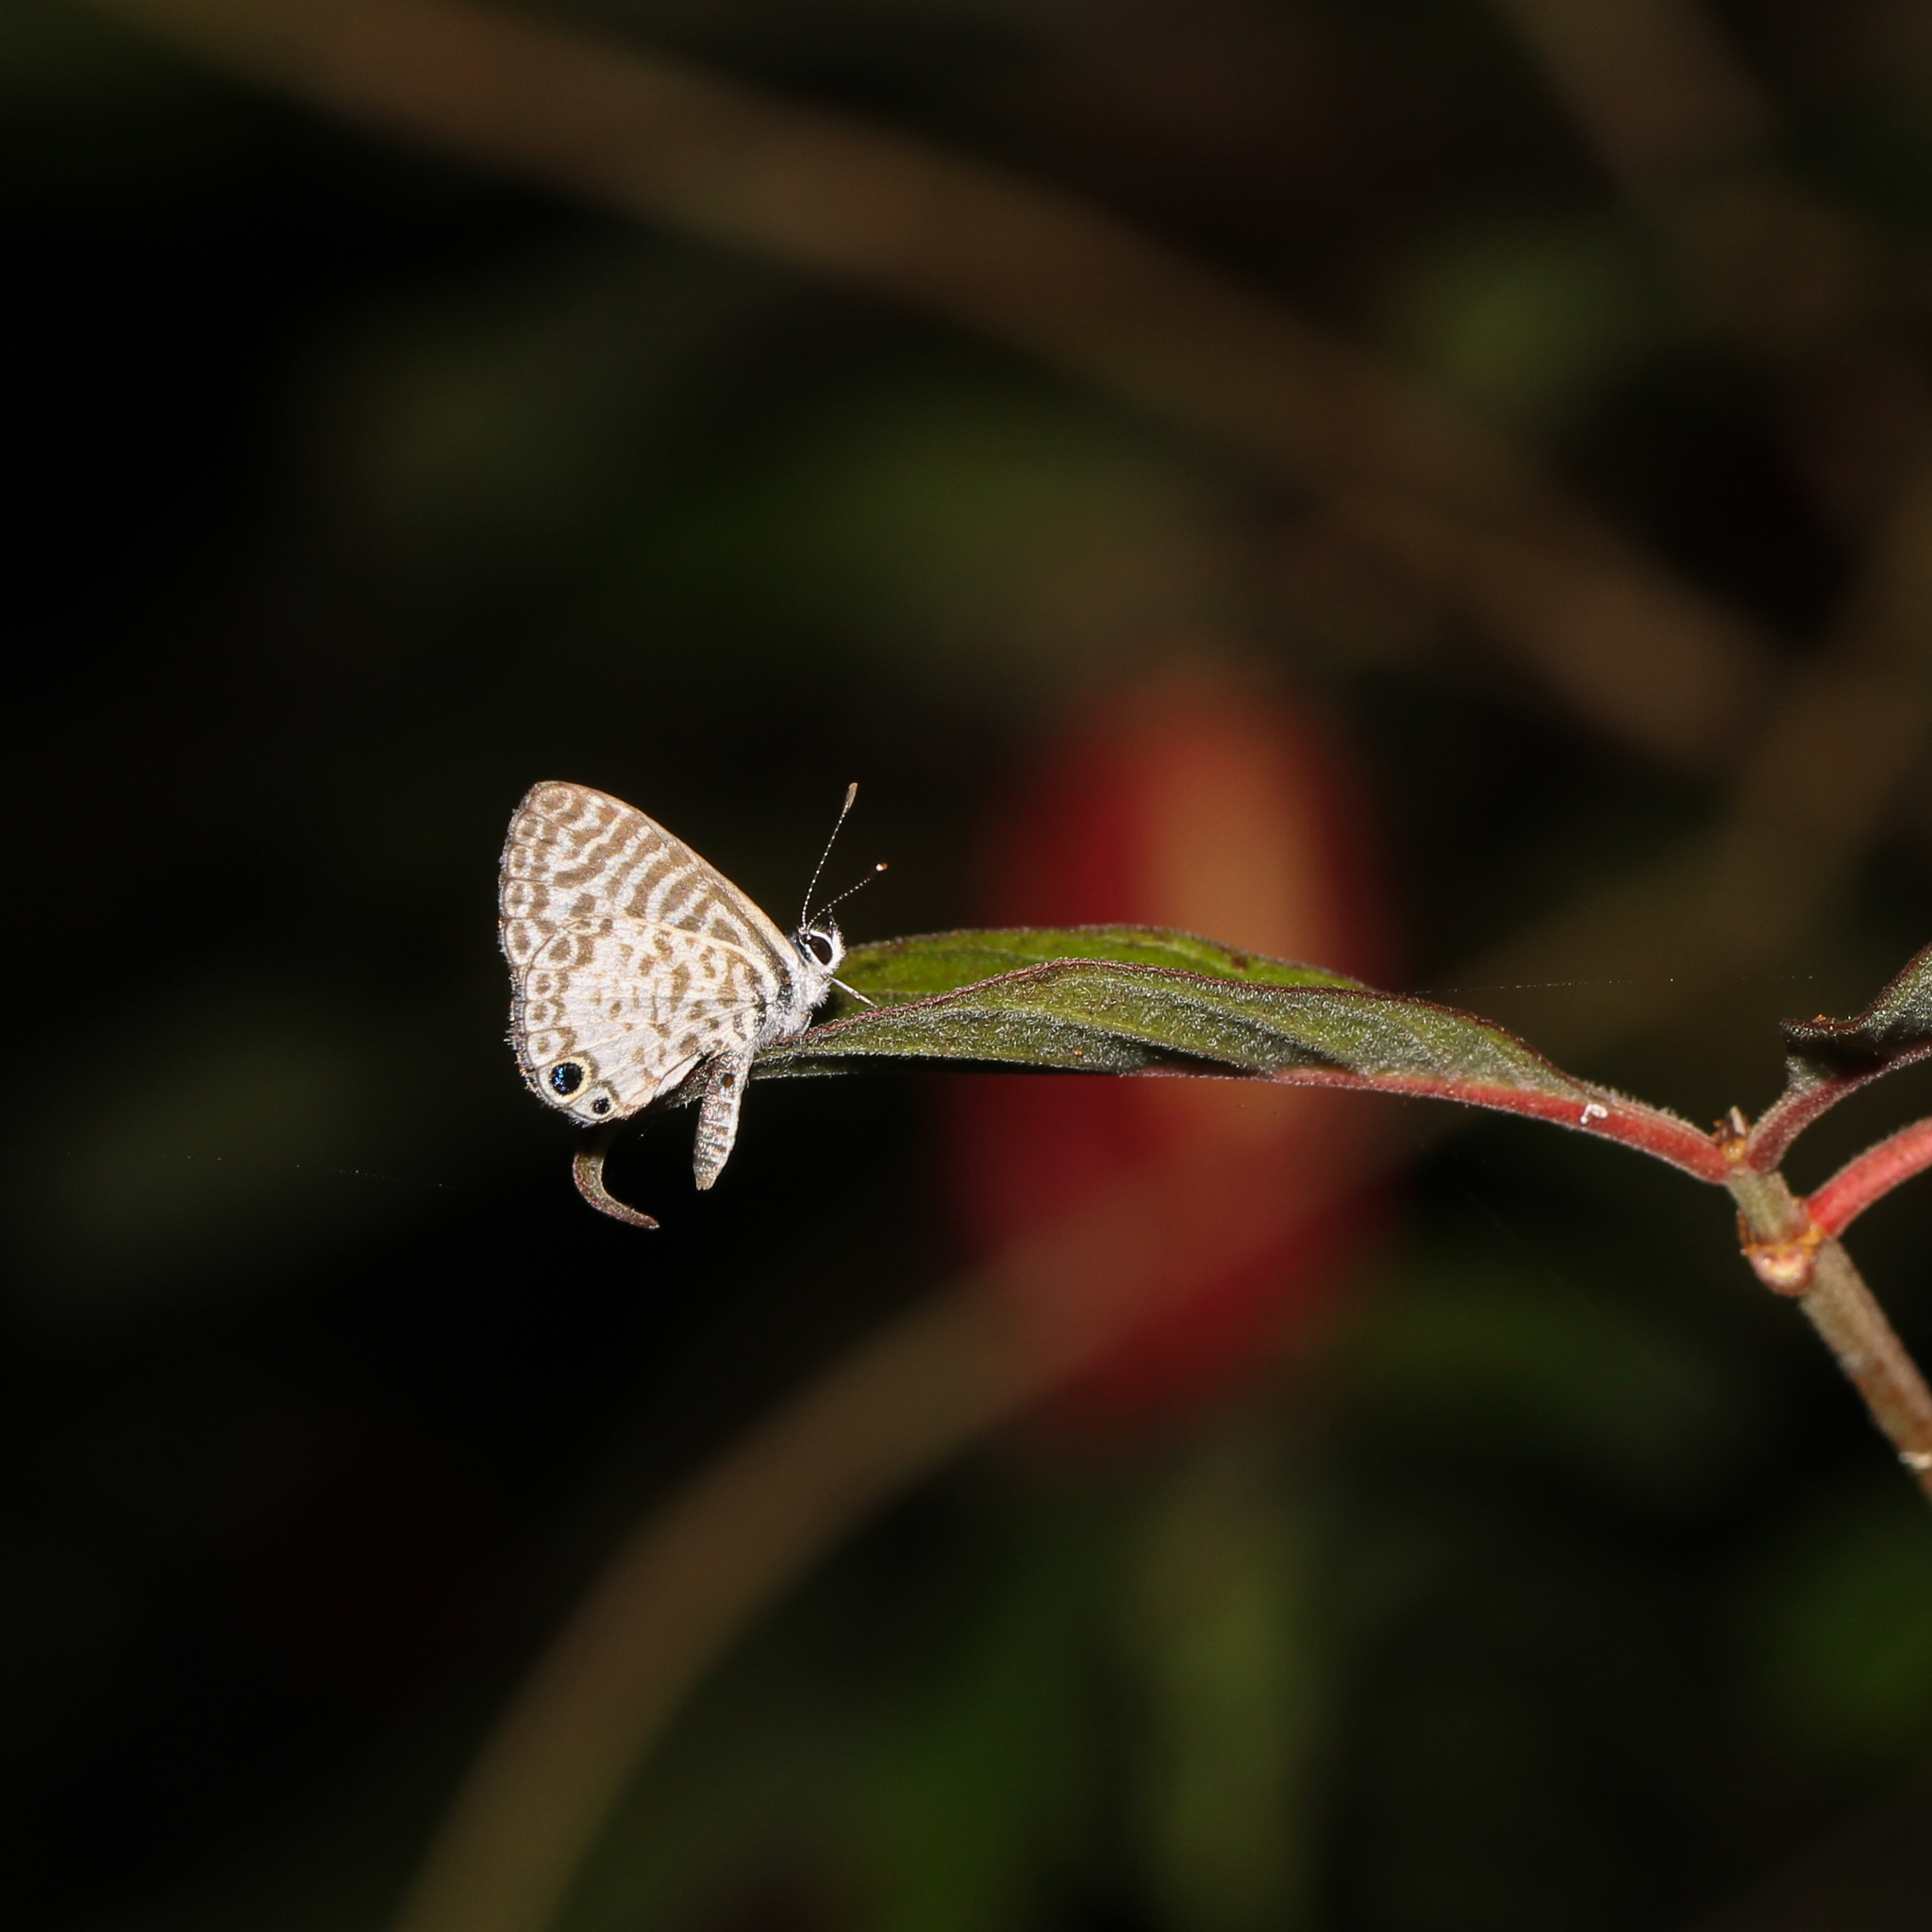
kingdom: Animalia
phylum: Arthropoda
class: Insecta
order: Lepidoptera
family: Lycaenidae
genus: Leptotes
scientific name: Leptotes cassius
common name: Cassius blue
